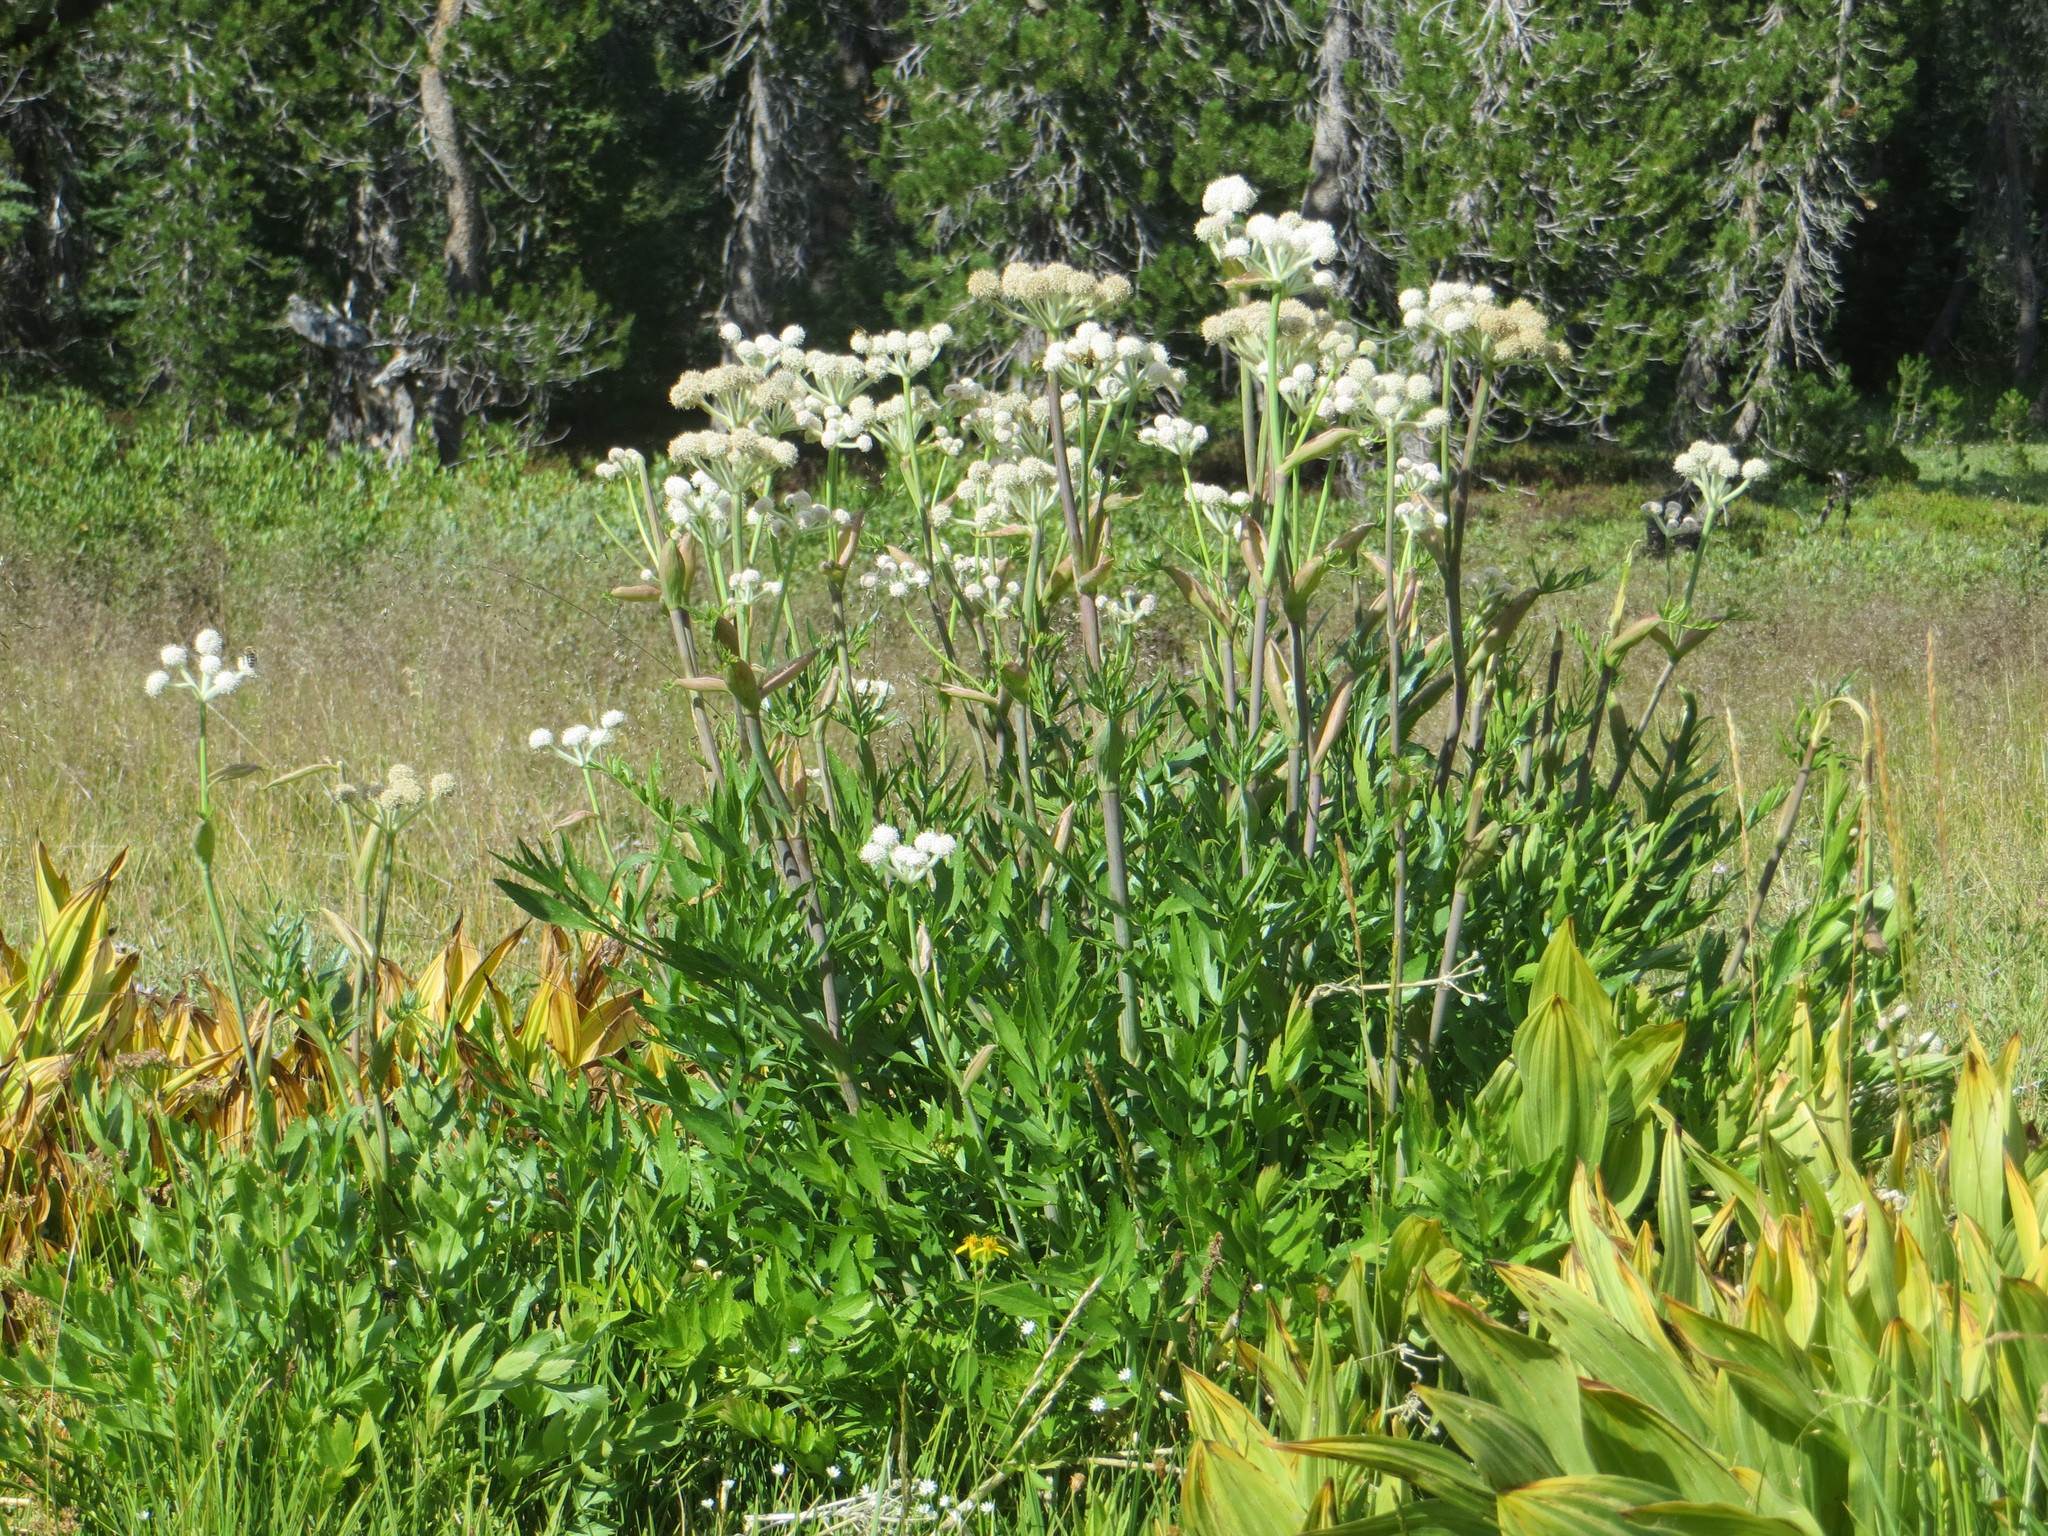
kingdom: Plantae
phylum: Tracheophyta
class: Magnoliopsida
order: Apiales
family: Apiaceae
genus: Angelica
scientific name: Angelica capitellata
